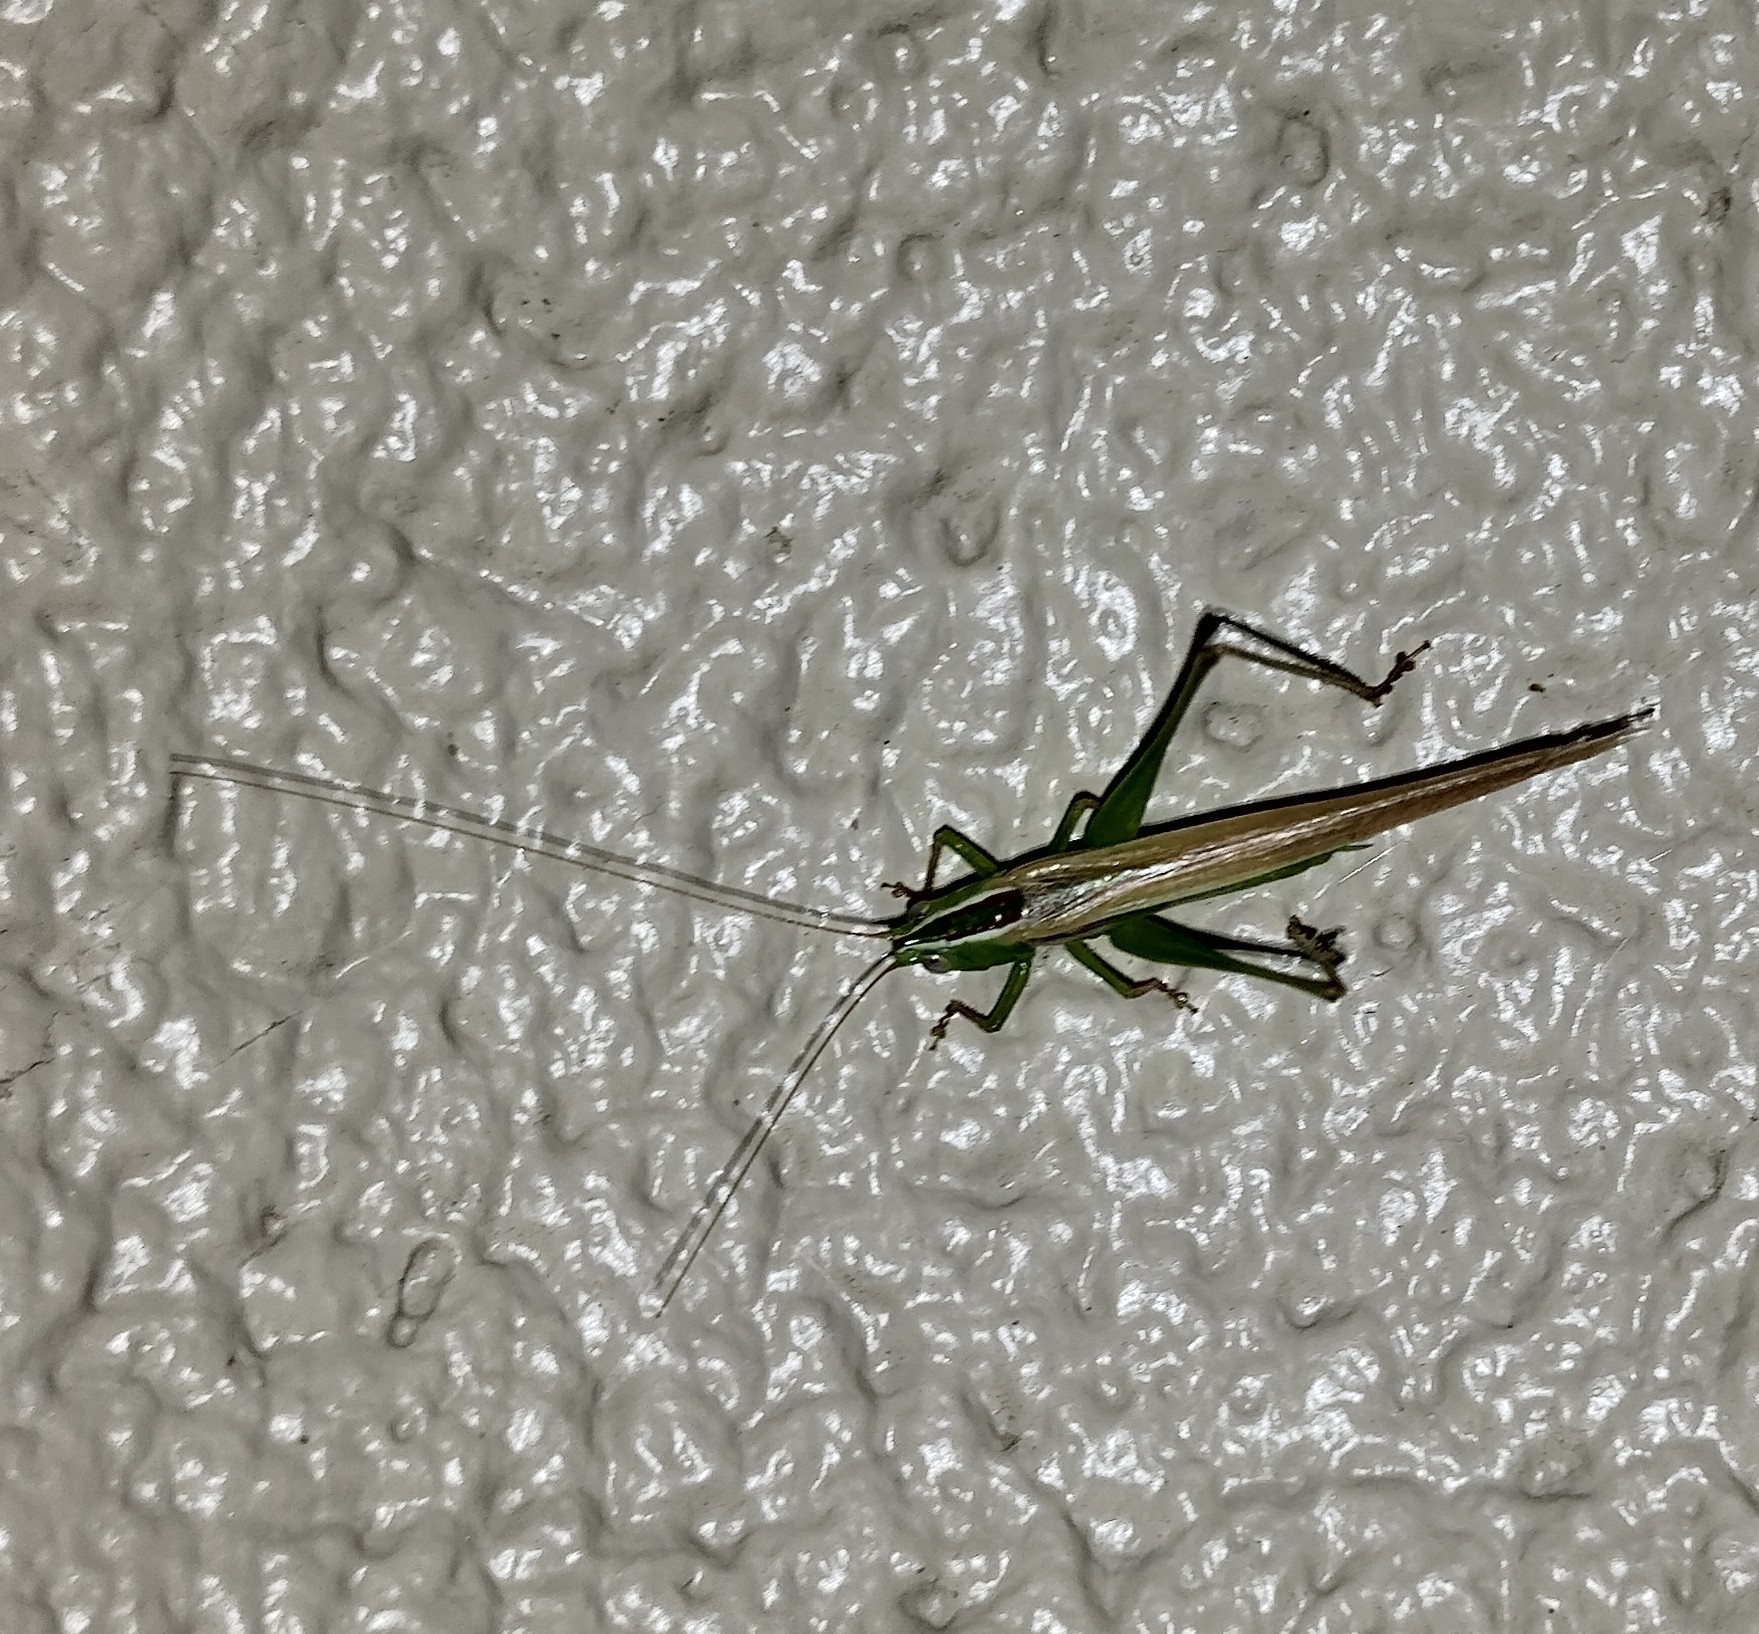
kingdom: Animalia
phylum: Arthropoda
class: Insecta
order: Orthoptera
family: Tettigoniidae
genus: Conocephalus
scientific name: Conocephalus upoluensis
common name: Upolu meadow katydid
